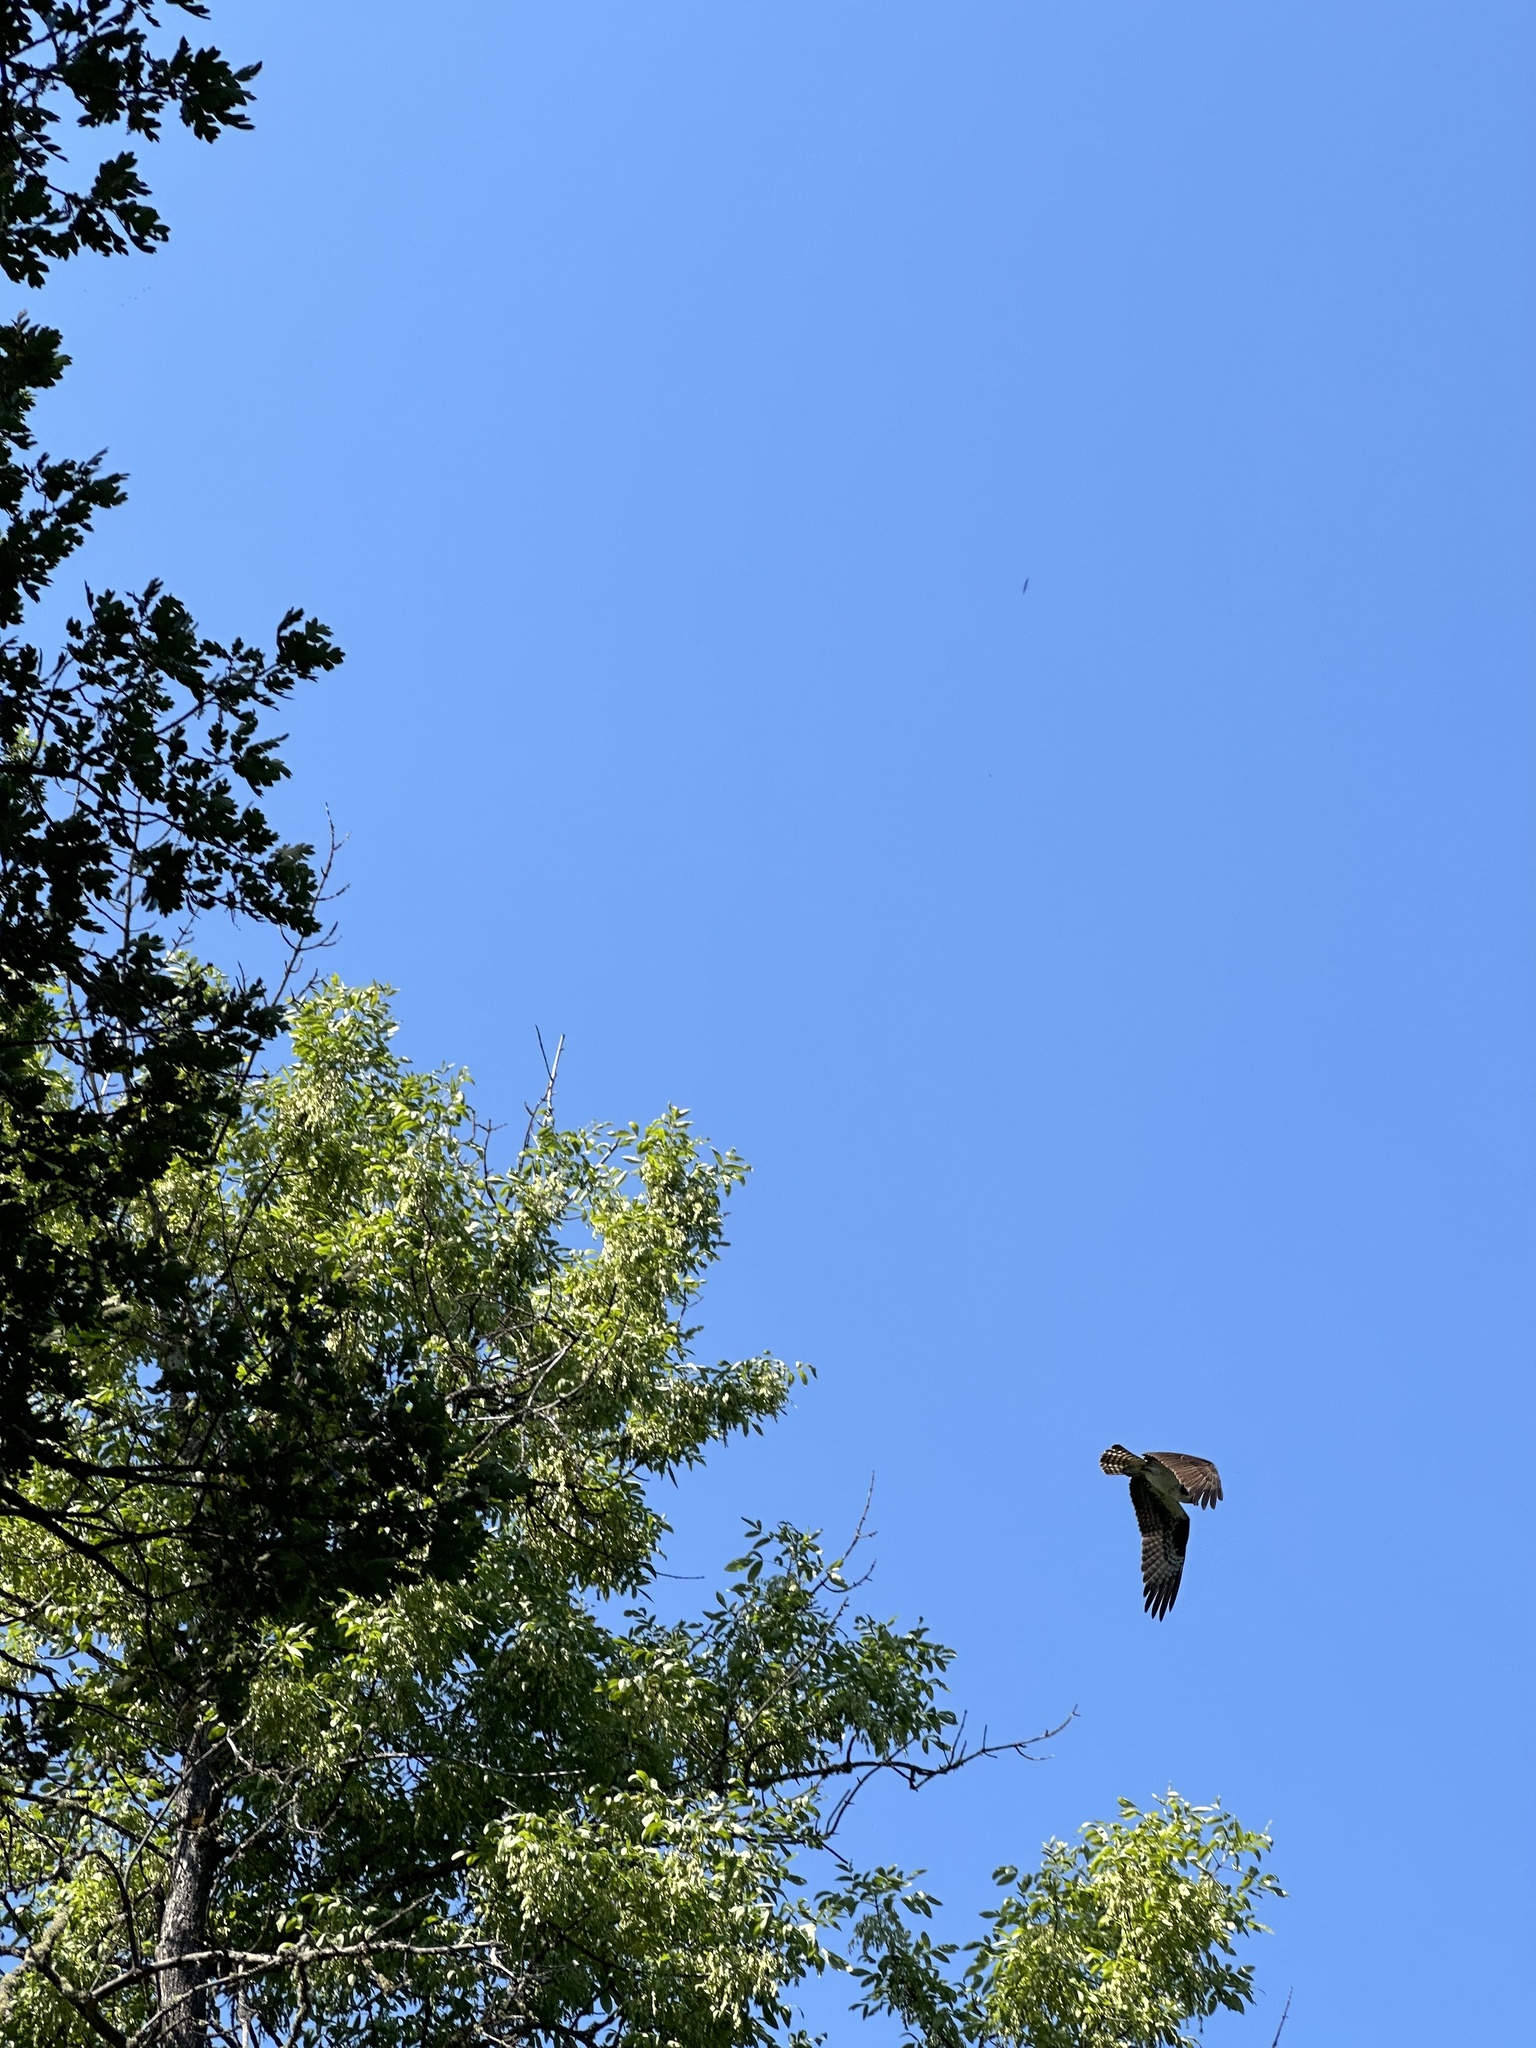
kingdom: Animalia
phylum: Chordata
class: Aves
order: Accipitriformes
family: Pandionidae
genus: Pandion
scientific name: Pandion haliaetus
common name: Osprey
